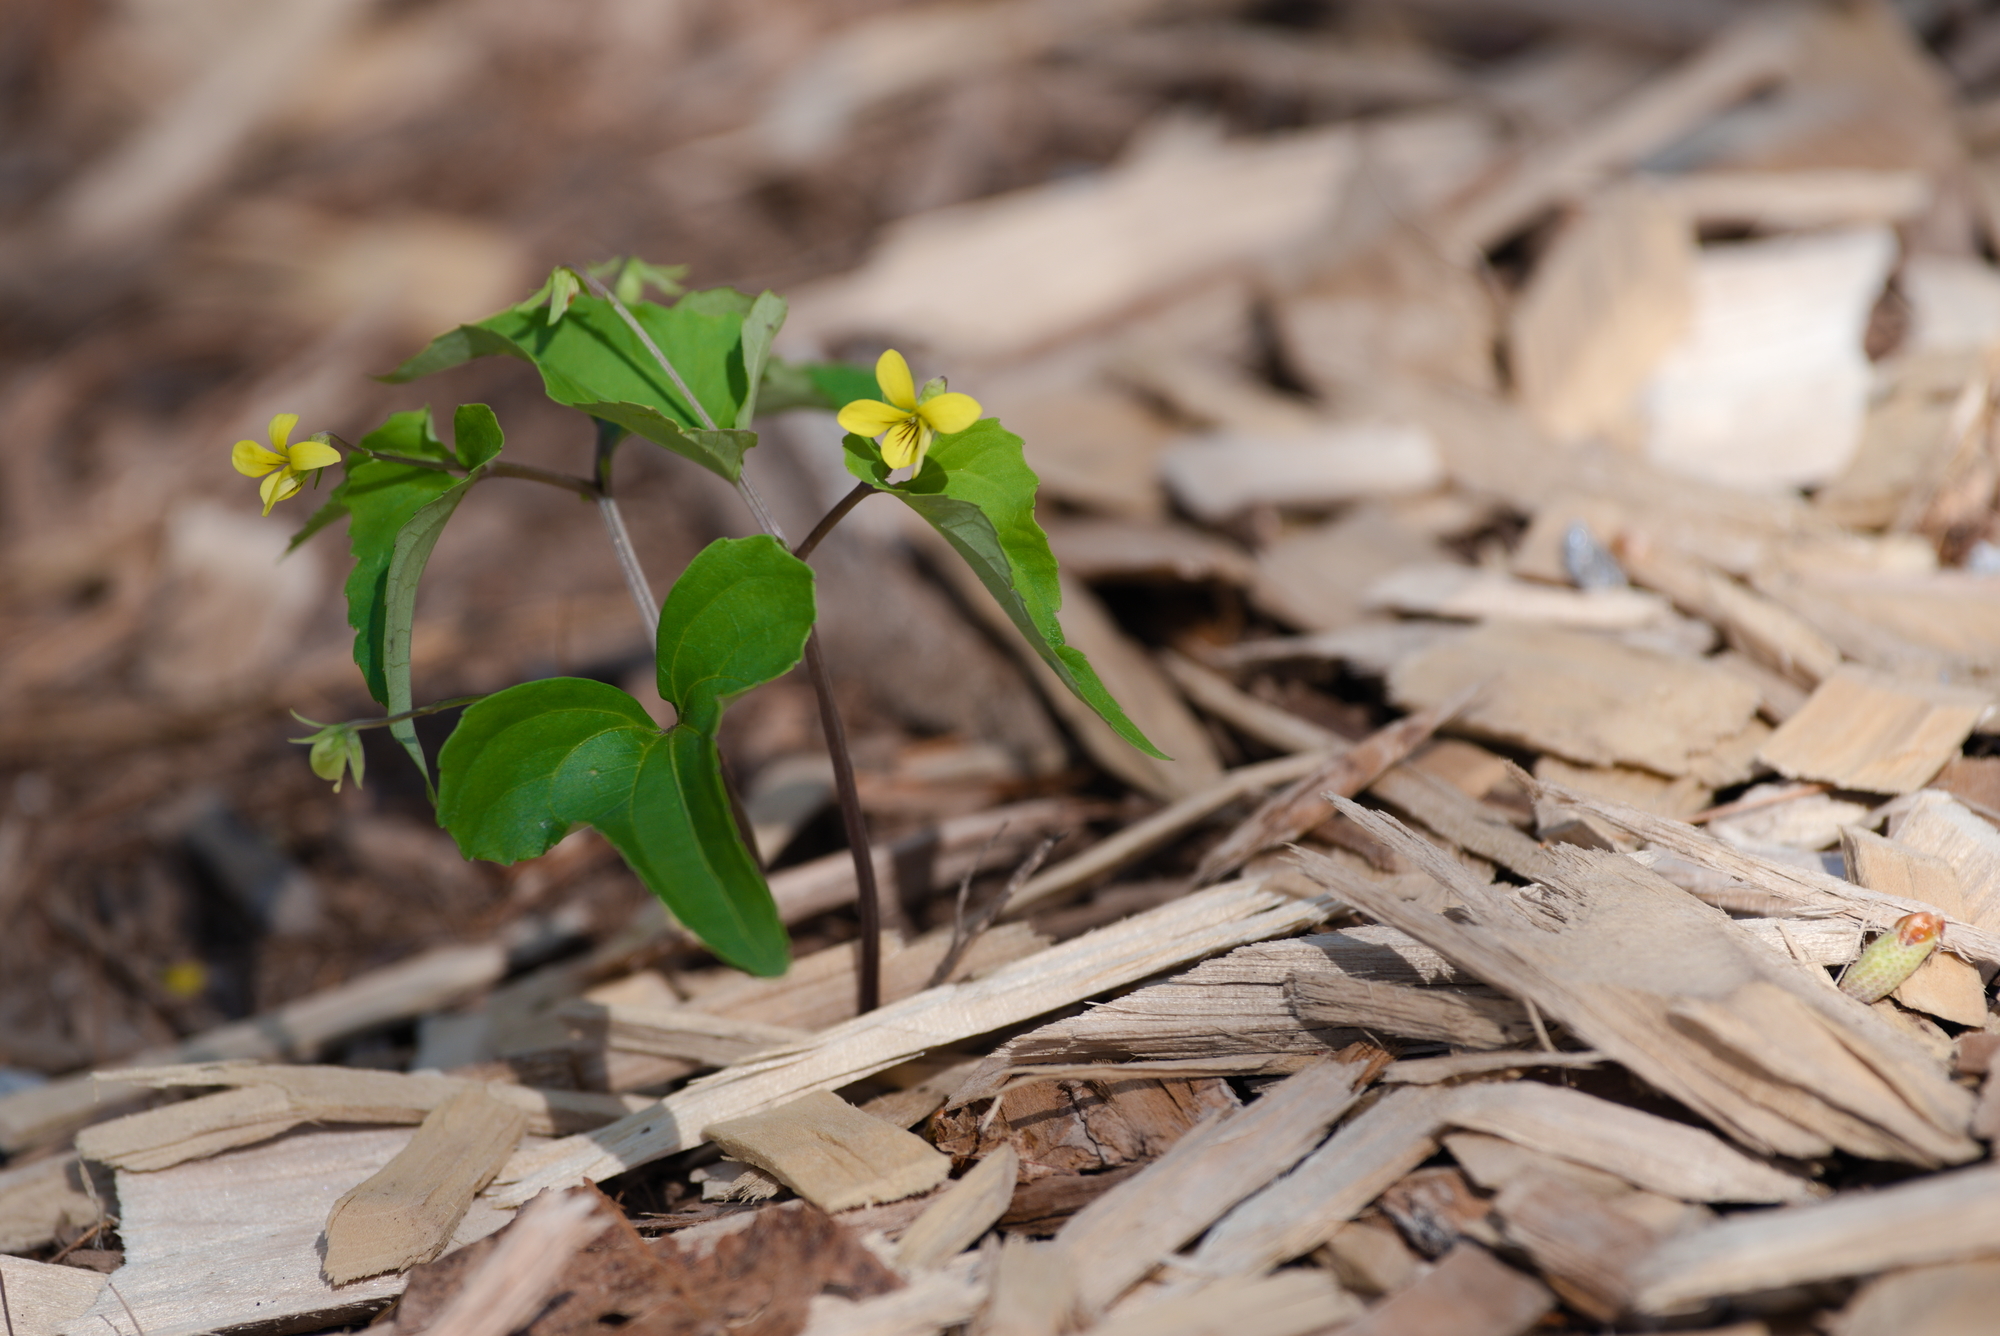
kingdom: Plantae
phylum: Tracheophyta
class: Magnoliopsida
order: Malpighiales
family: Violaceae
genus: Viola
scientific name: Viola hastata
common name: Spear-leaf violet
